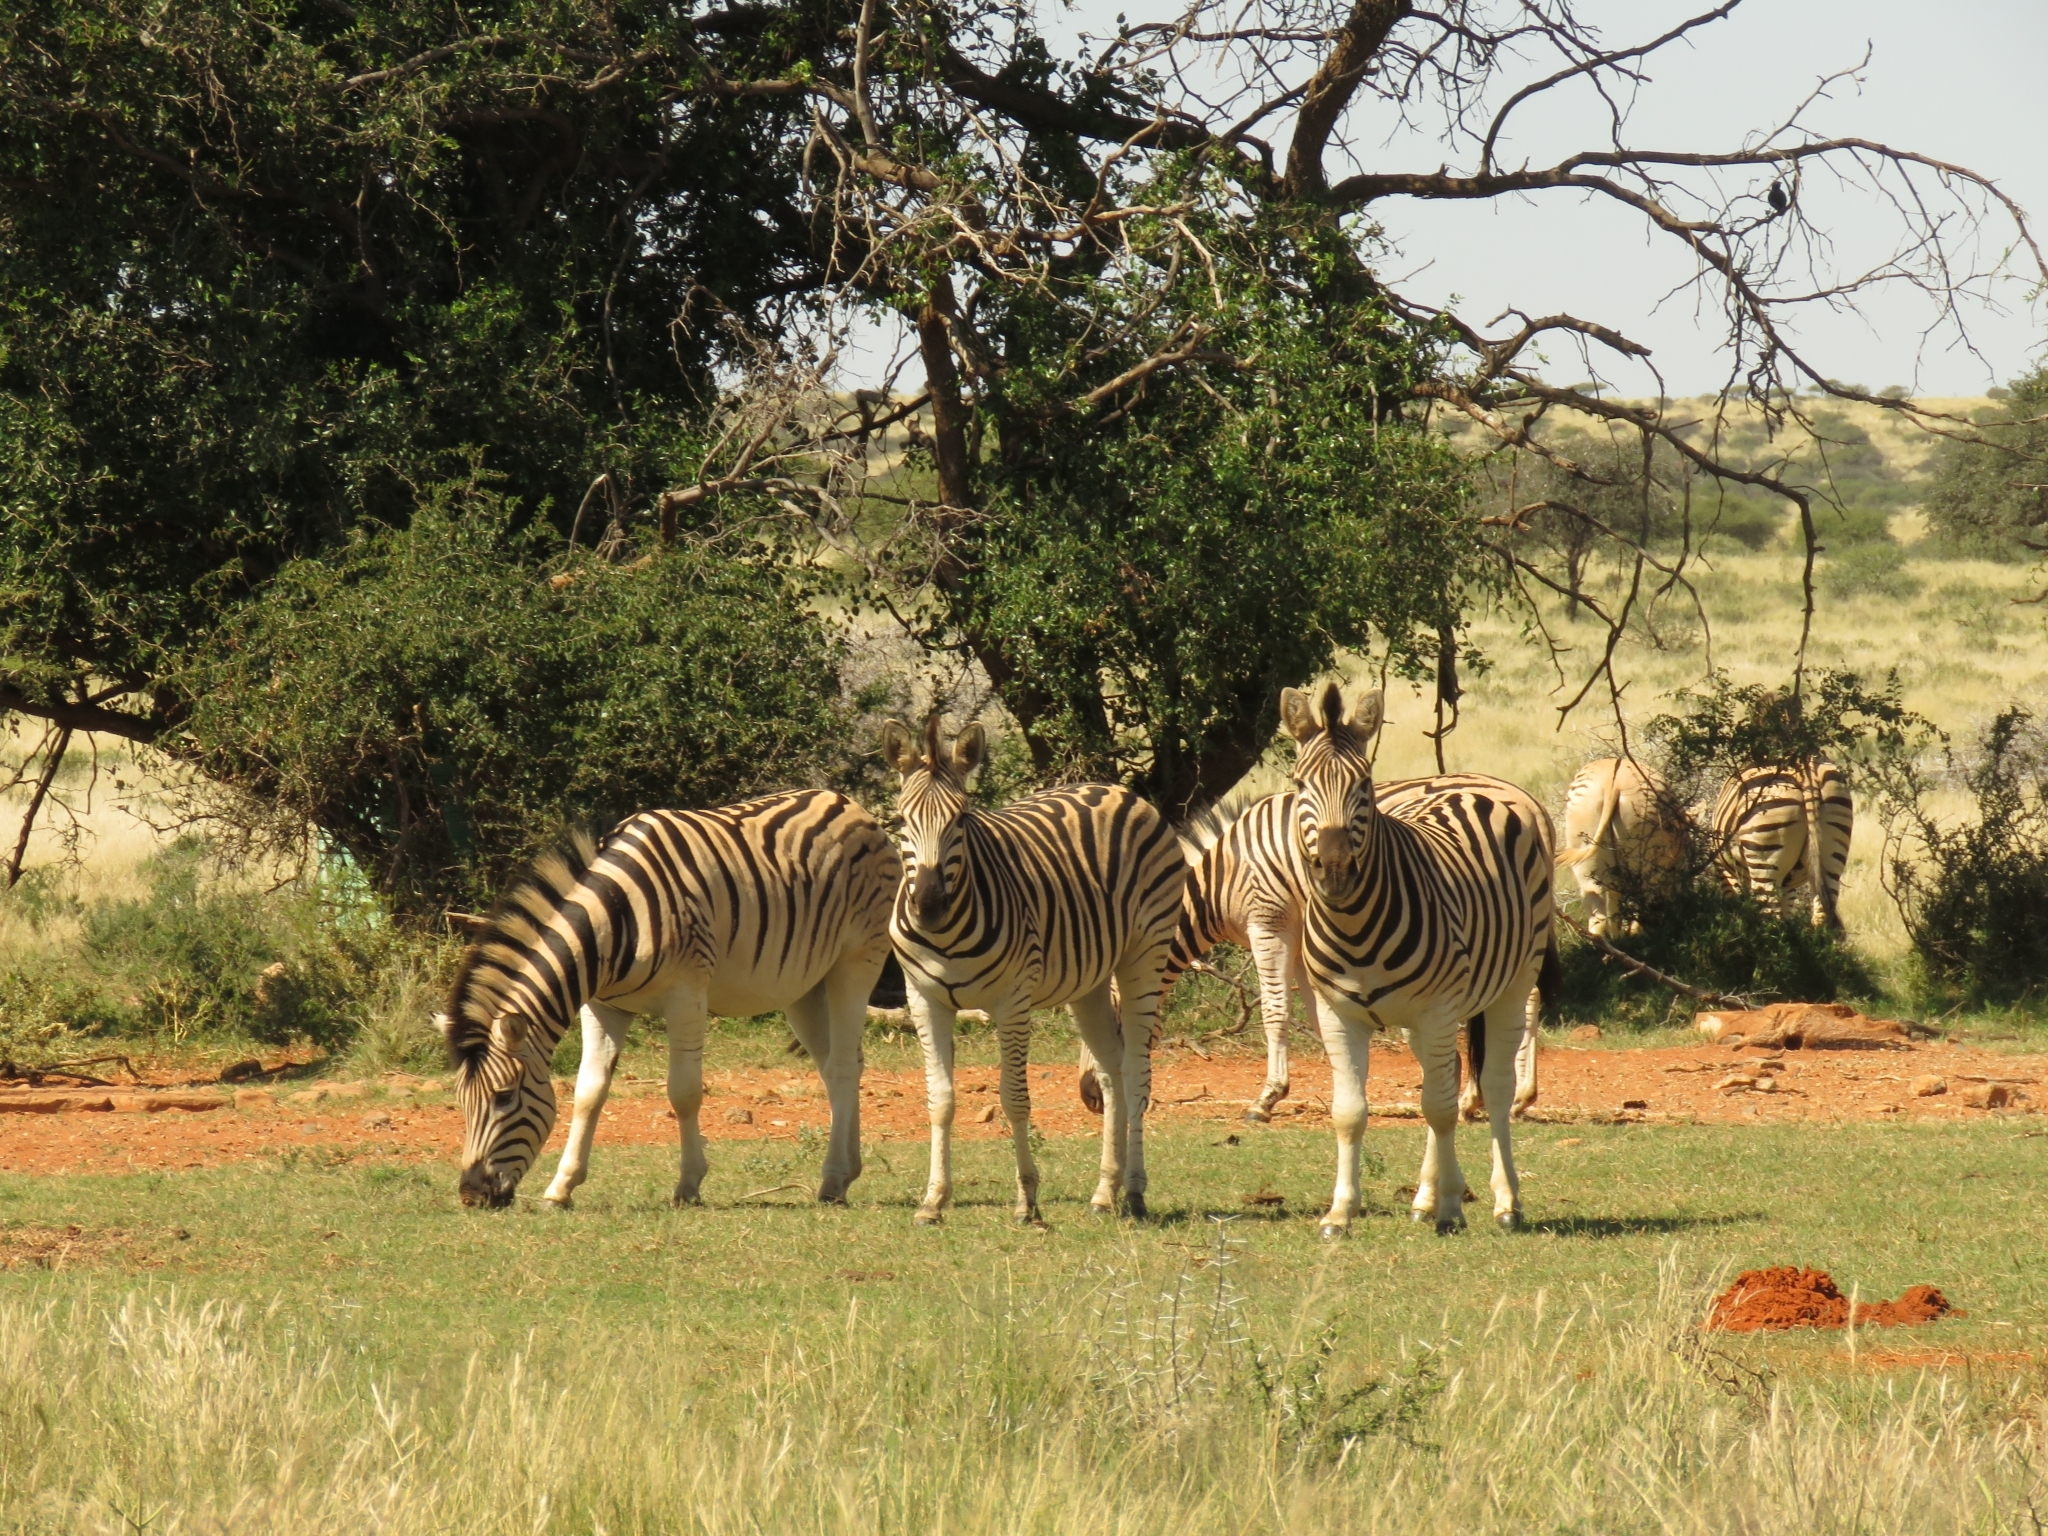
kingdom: Animalia
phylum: Chordata
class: Mammalia
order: Perissodactyla
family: Equidae
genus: Equus
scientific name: Equus quagga
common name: Plains zebra
